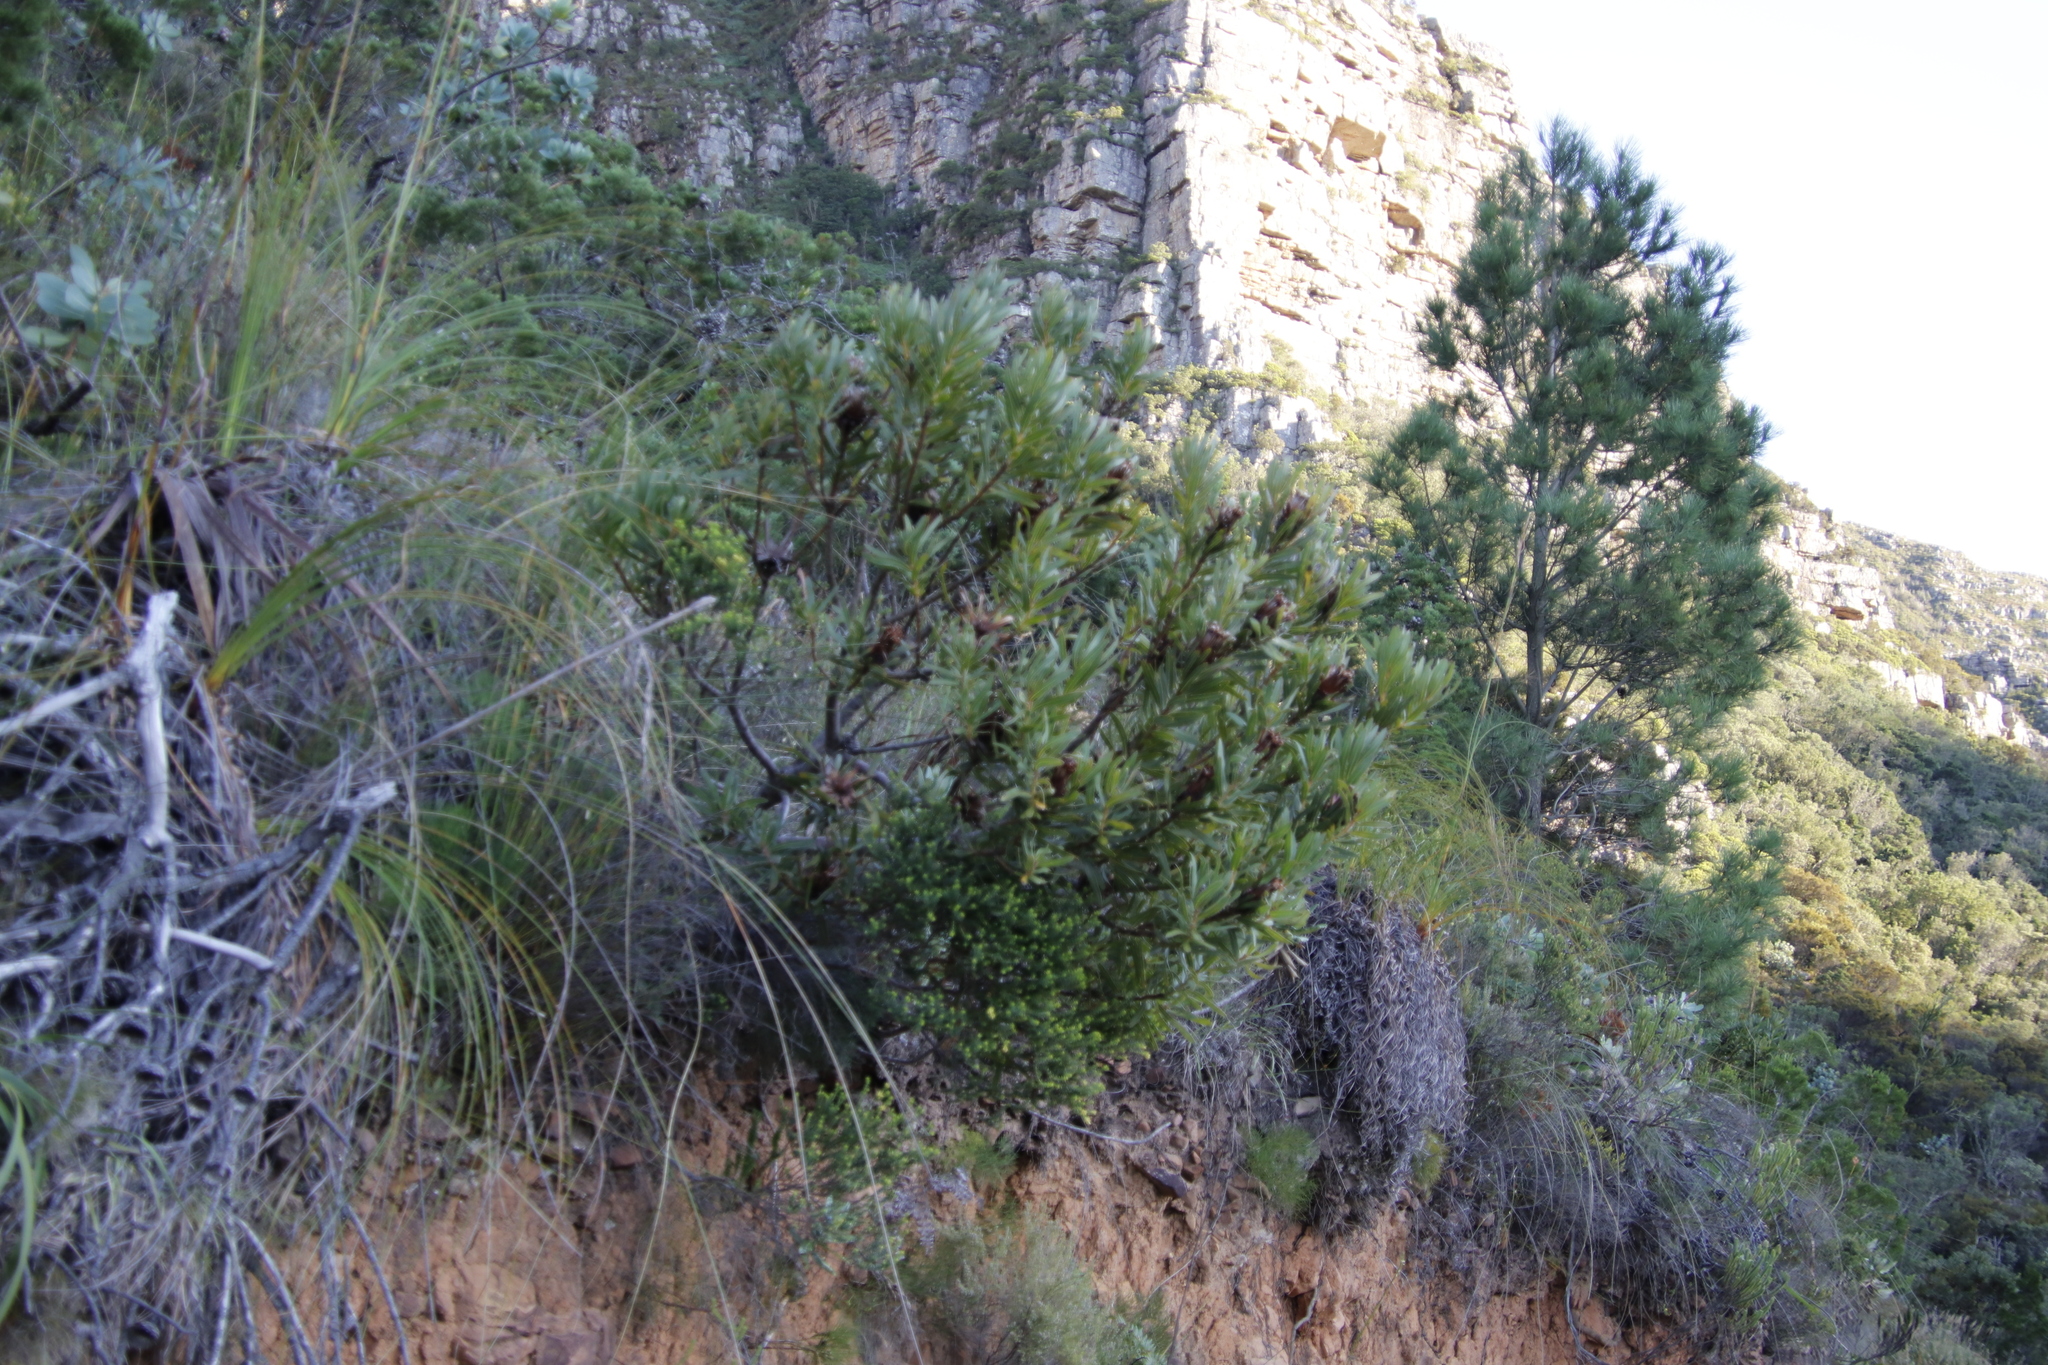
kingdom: Plantae
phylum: Tracheophyta
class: Magnoliopsida
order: Proteales
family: Proteaceae
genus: Protea
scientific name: Protea repens
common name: Sugarbush
